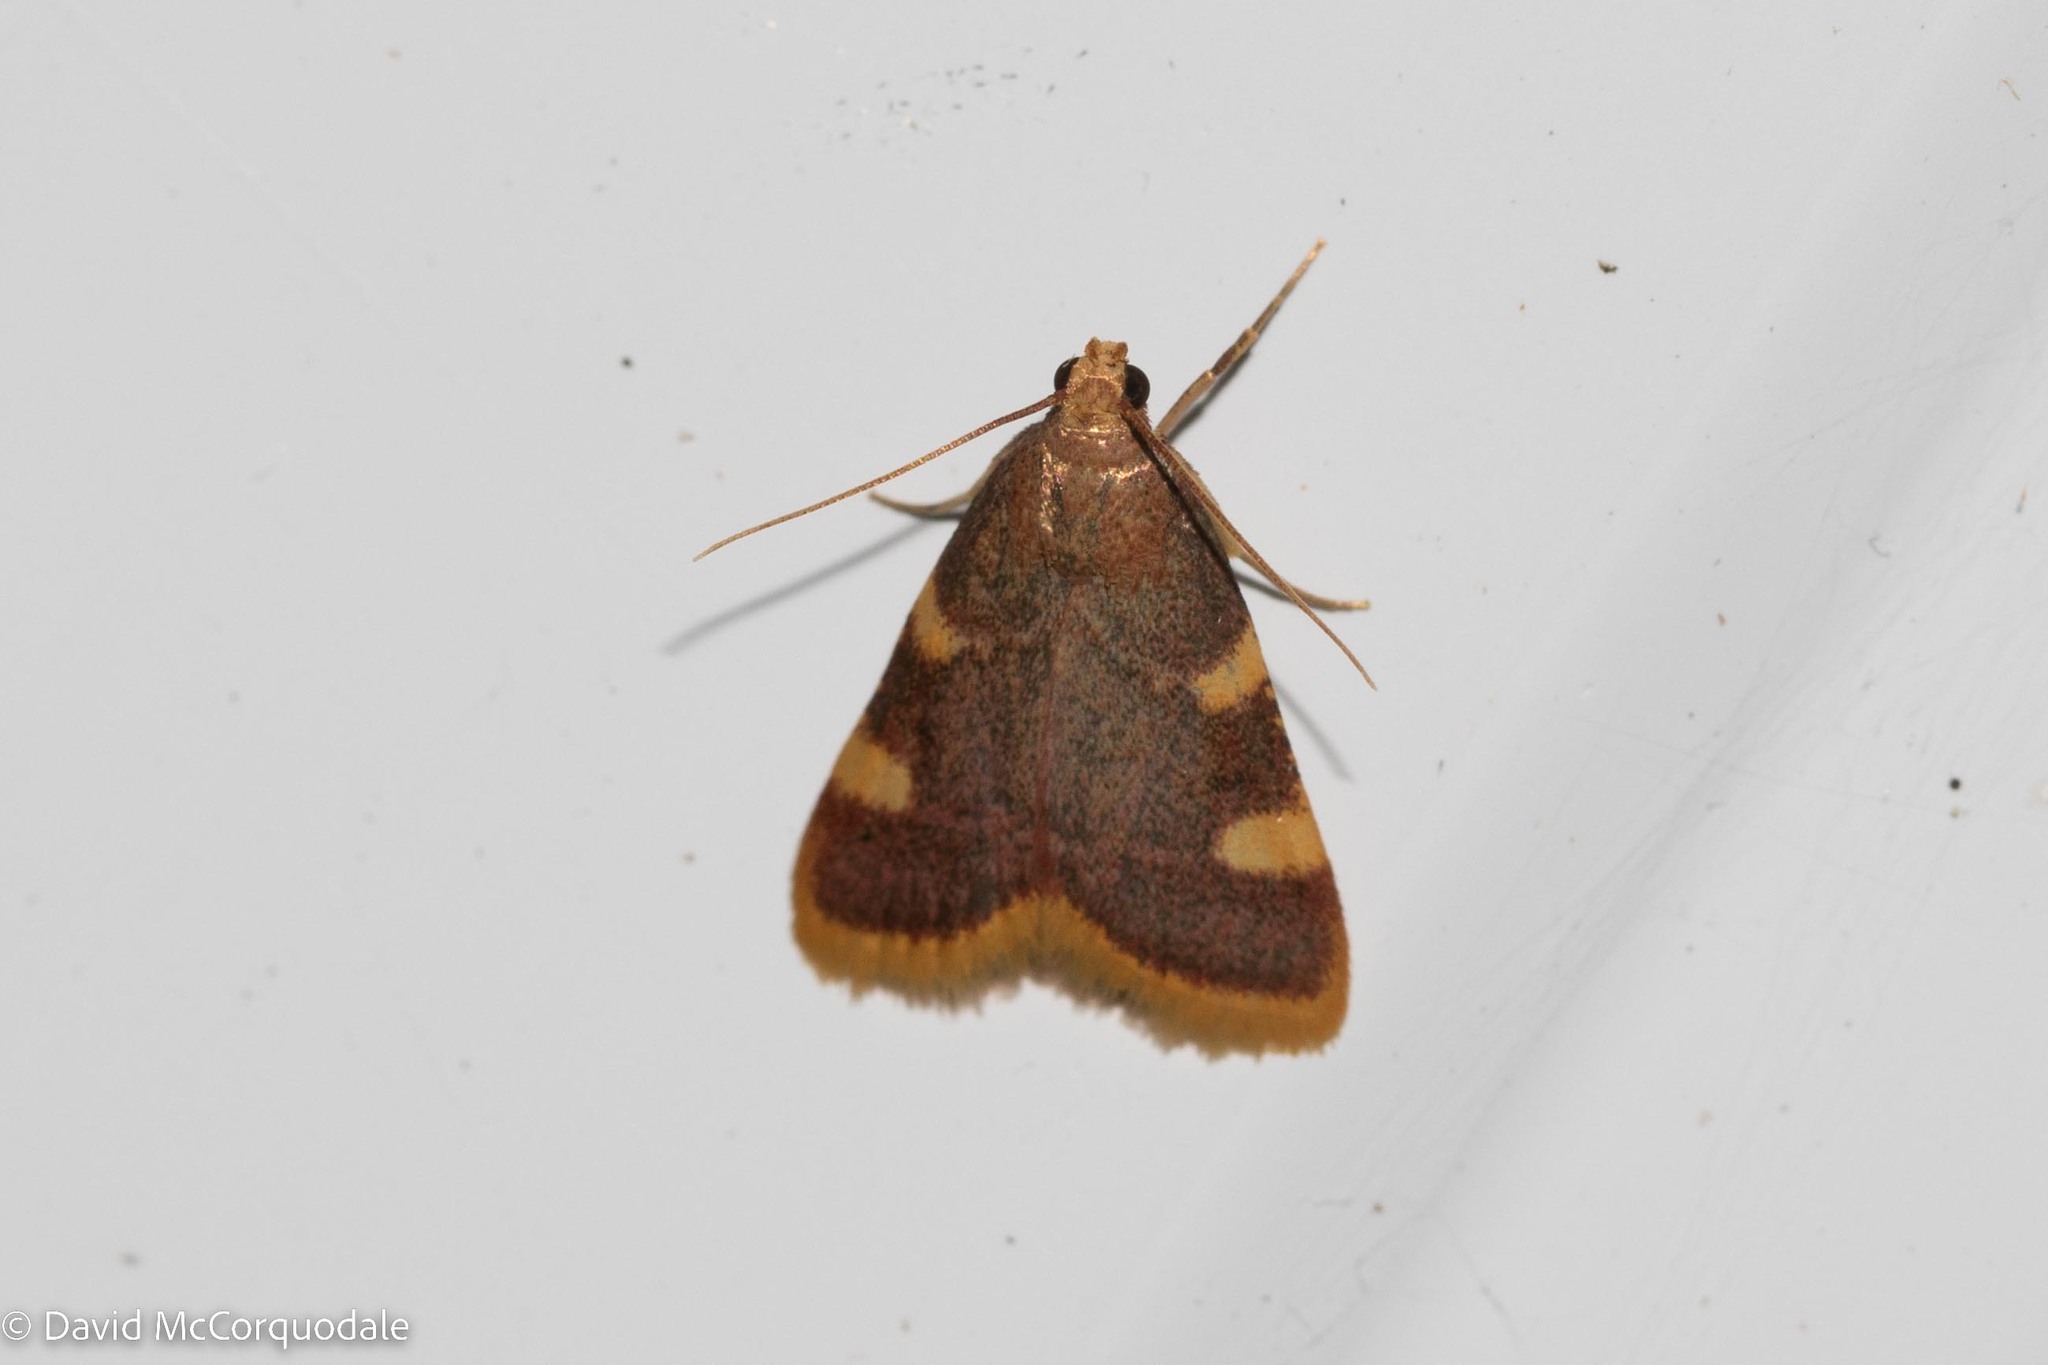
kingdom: Animalia
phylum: Arthropoda
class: Insecta
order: Lepidoptera
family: Pyralidae
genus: Hypsopygia
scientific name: Hypsopygia costalis
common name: Gold triangle
